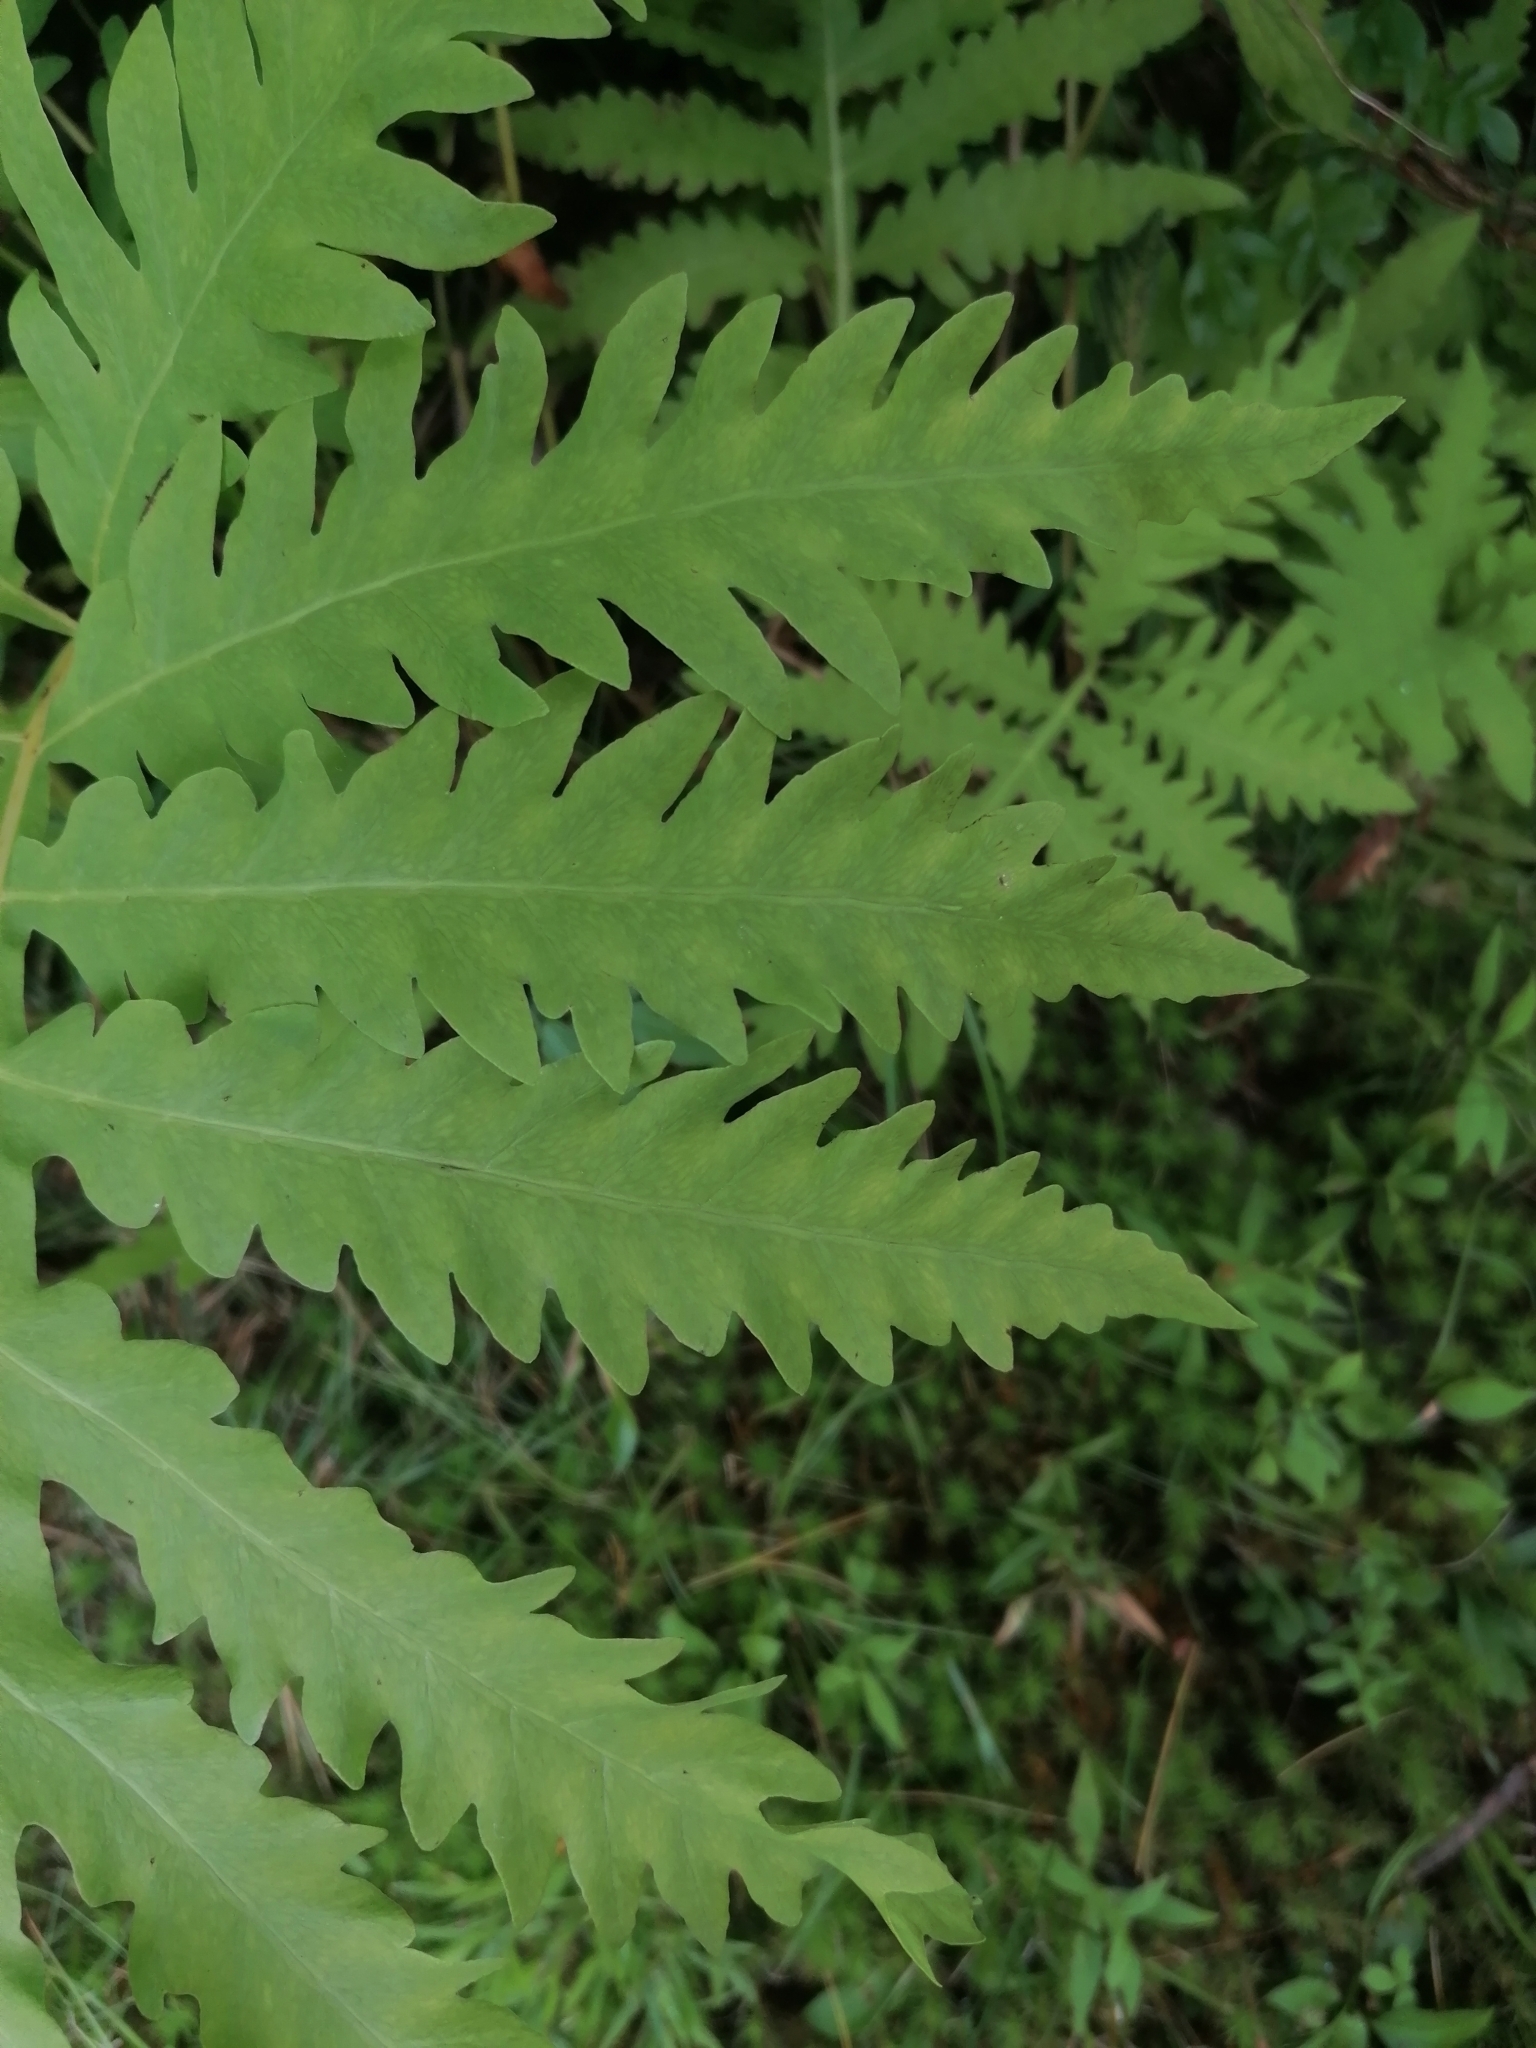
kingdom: Plantae
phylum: Tracheophyta
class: Polypodiopsida
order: Polypodiales
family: Onocleaceae
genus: Onoclea
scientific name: Onoclea sensibilis
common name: Sensitive fern
